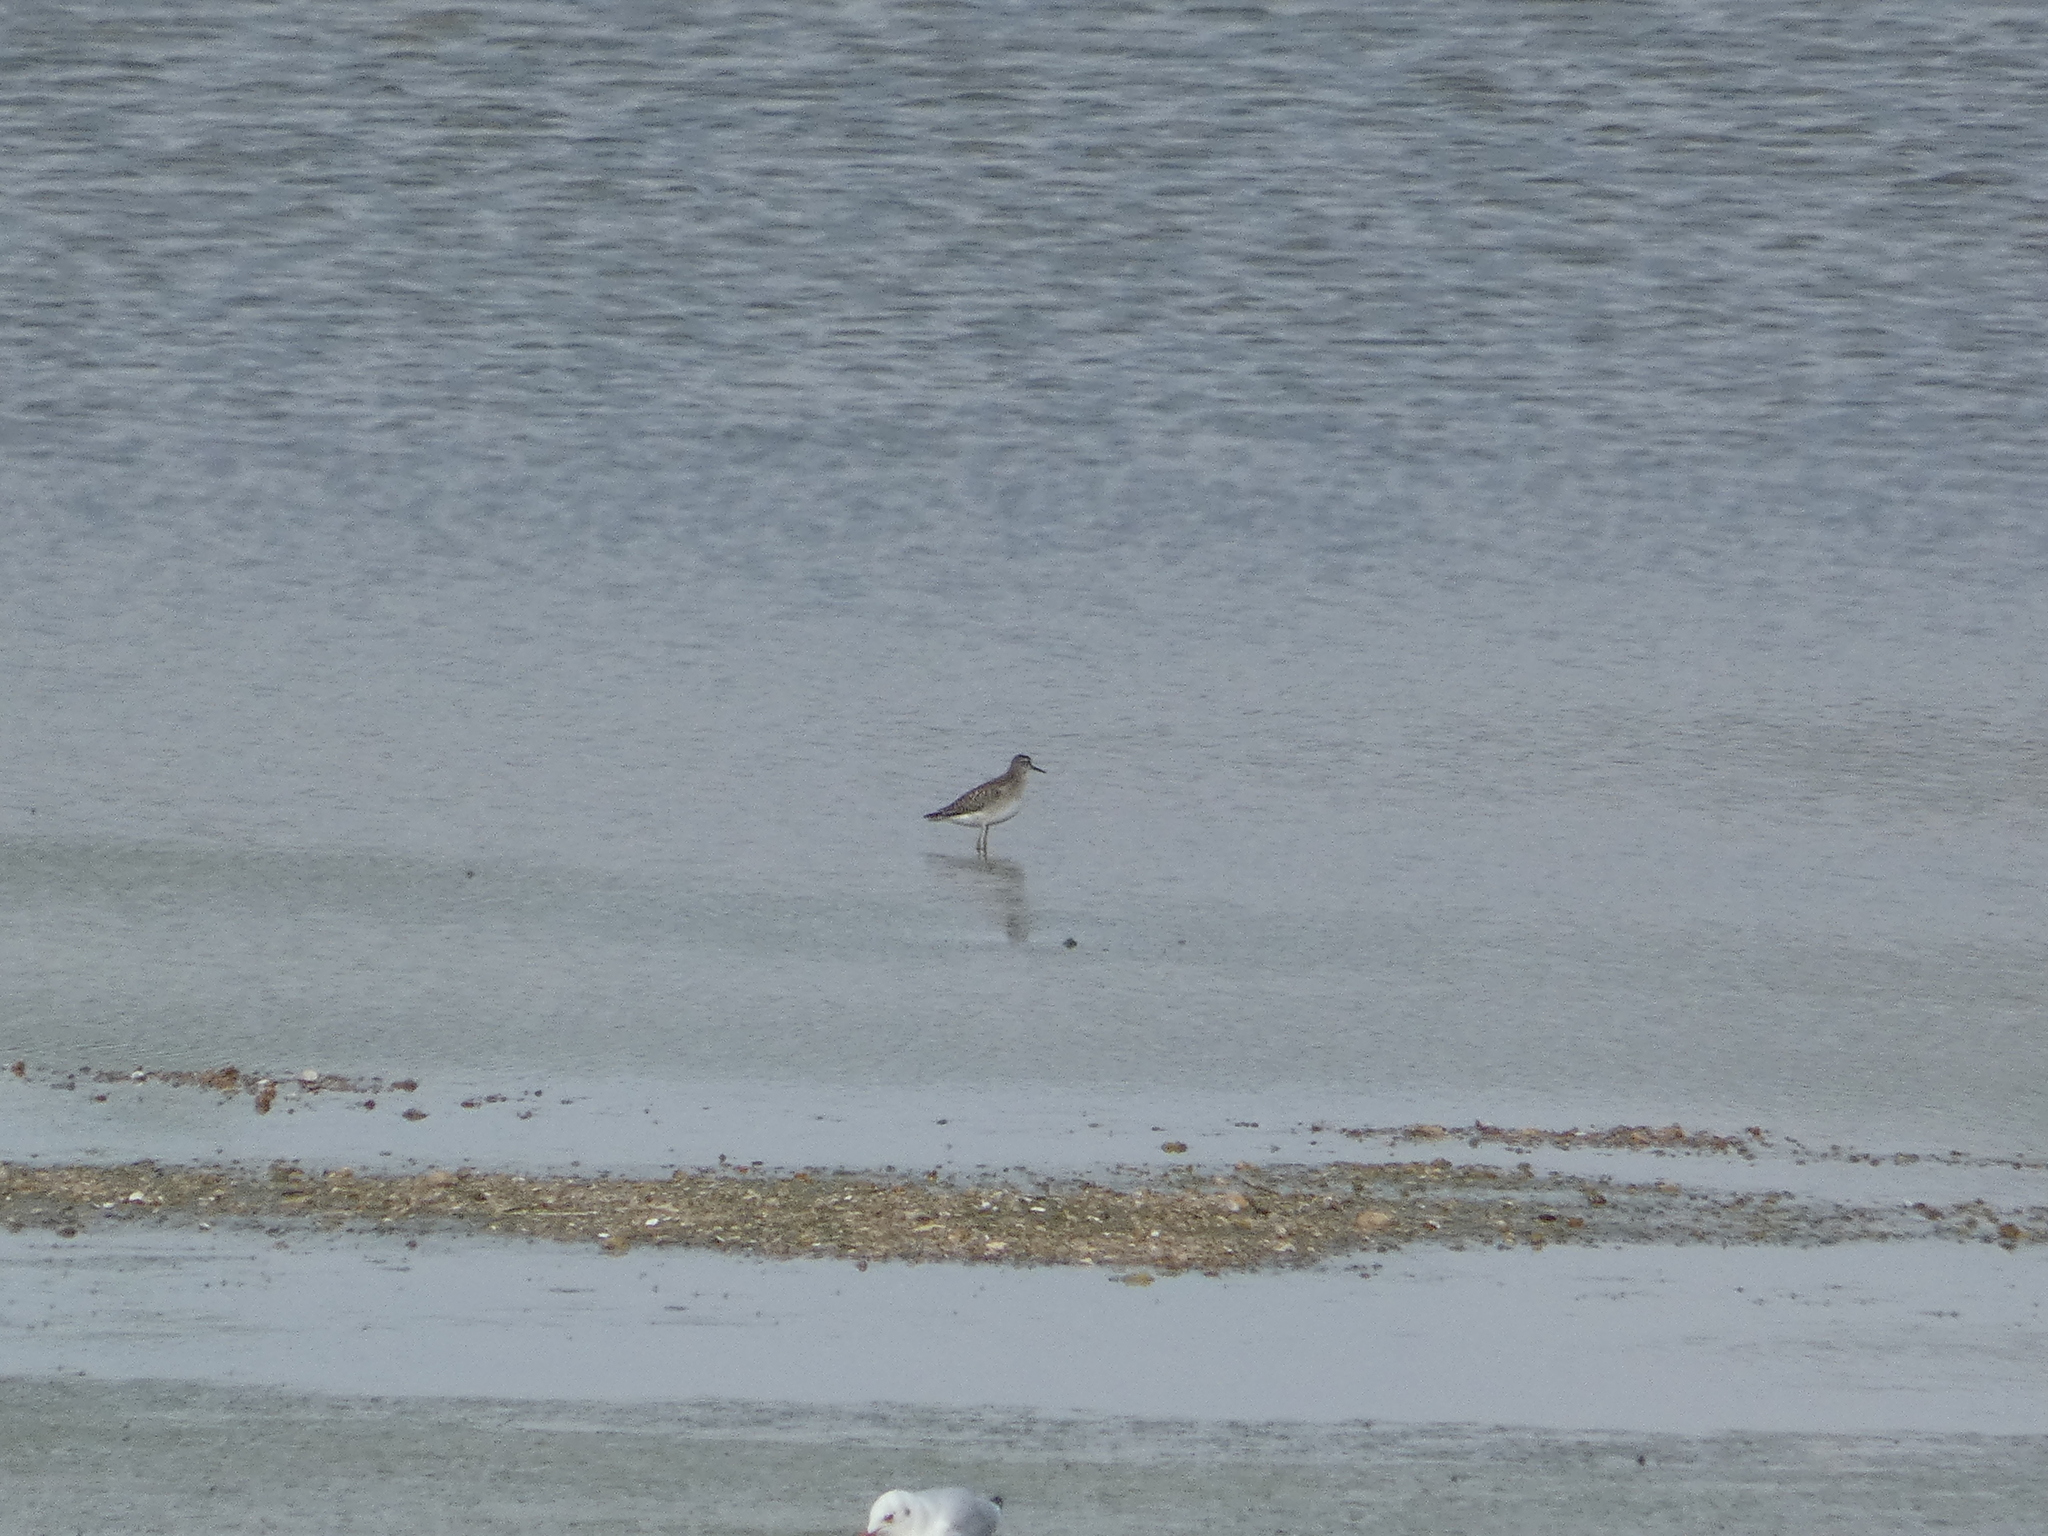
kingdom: Animalia
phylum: Chordata
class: Aves
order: Charadriiformes
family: Scolopacidae
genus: Tringa
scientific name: Tringa glareola
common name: Wood sandpiper
